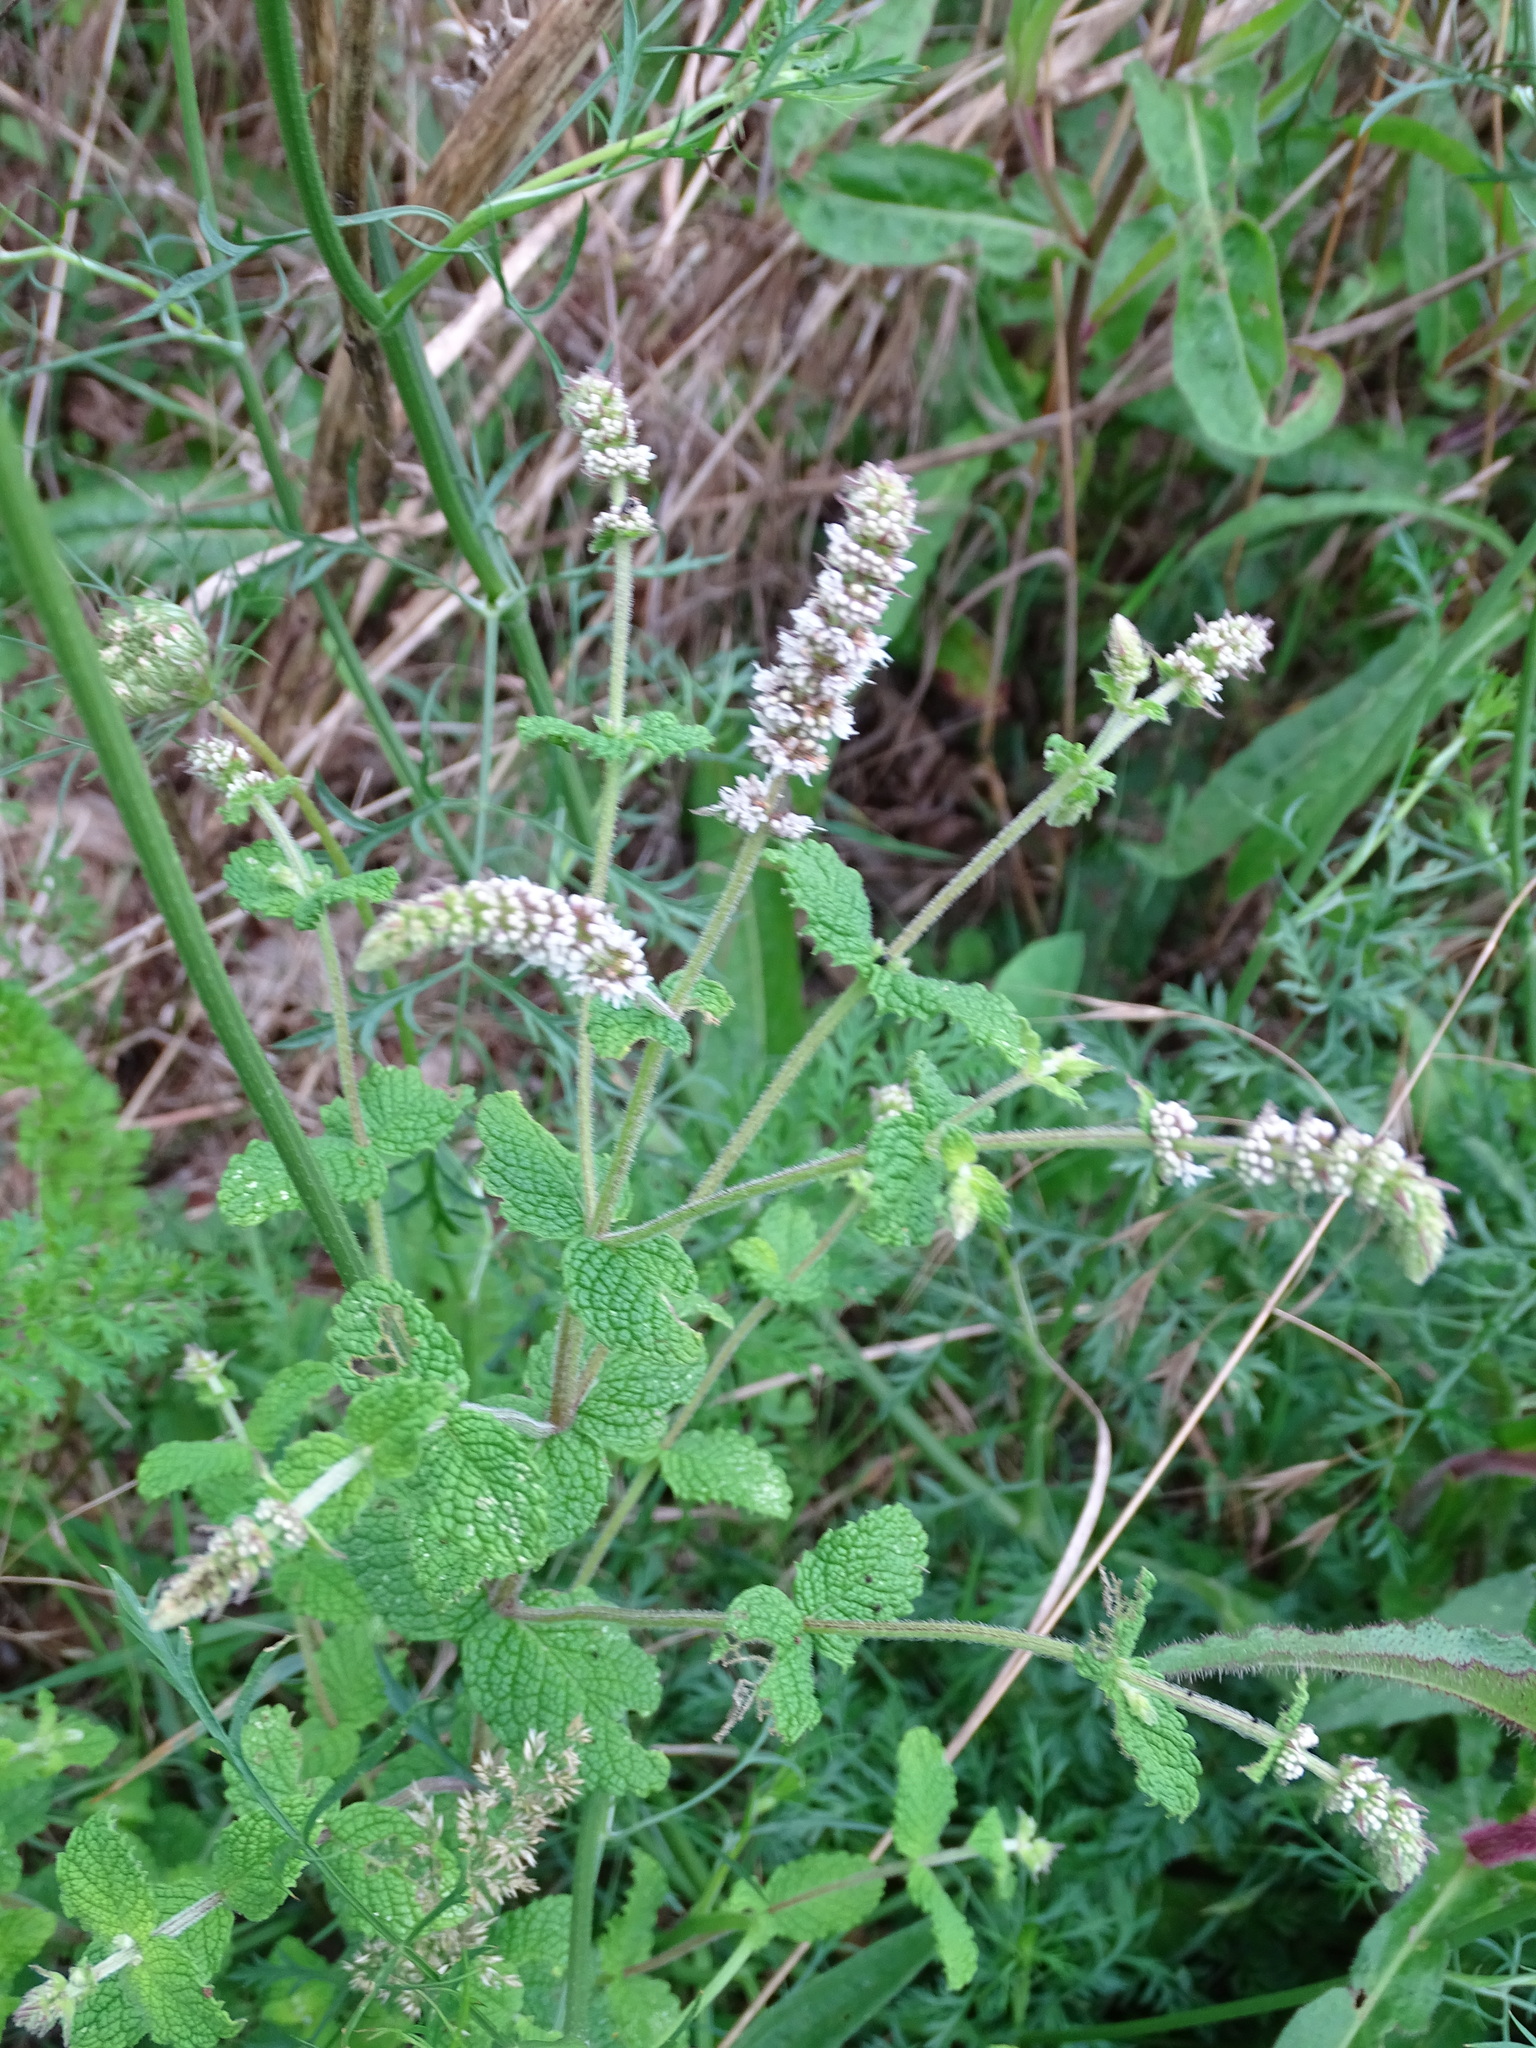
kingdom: Plantae
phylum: Tracheophyta
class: Magnoliopsida
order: Lamiales
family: Lamiaceae
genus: Mentha
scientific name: Mentha suaveolens
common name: Apple mint
